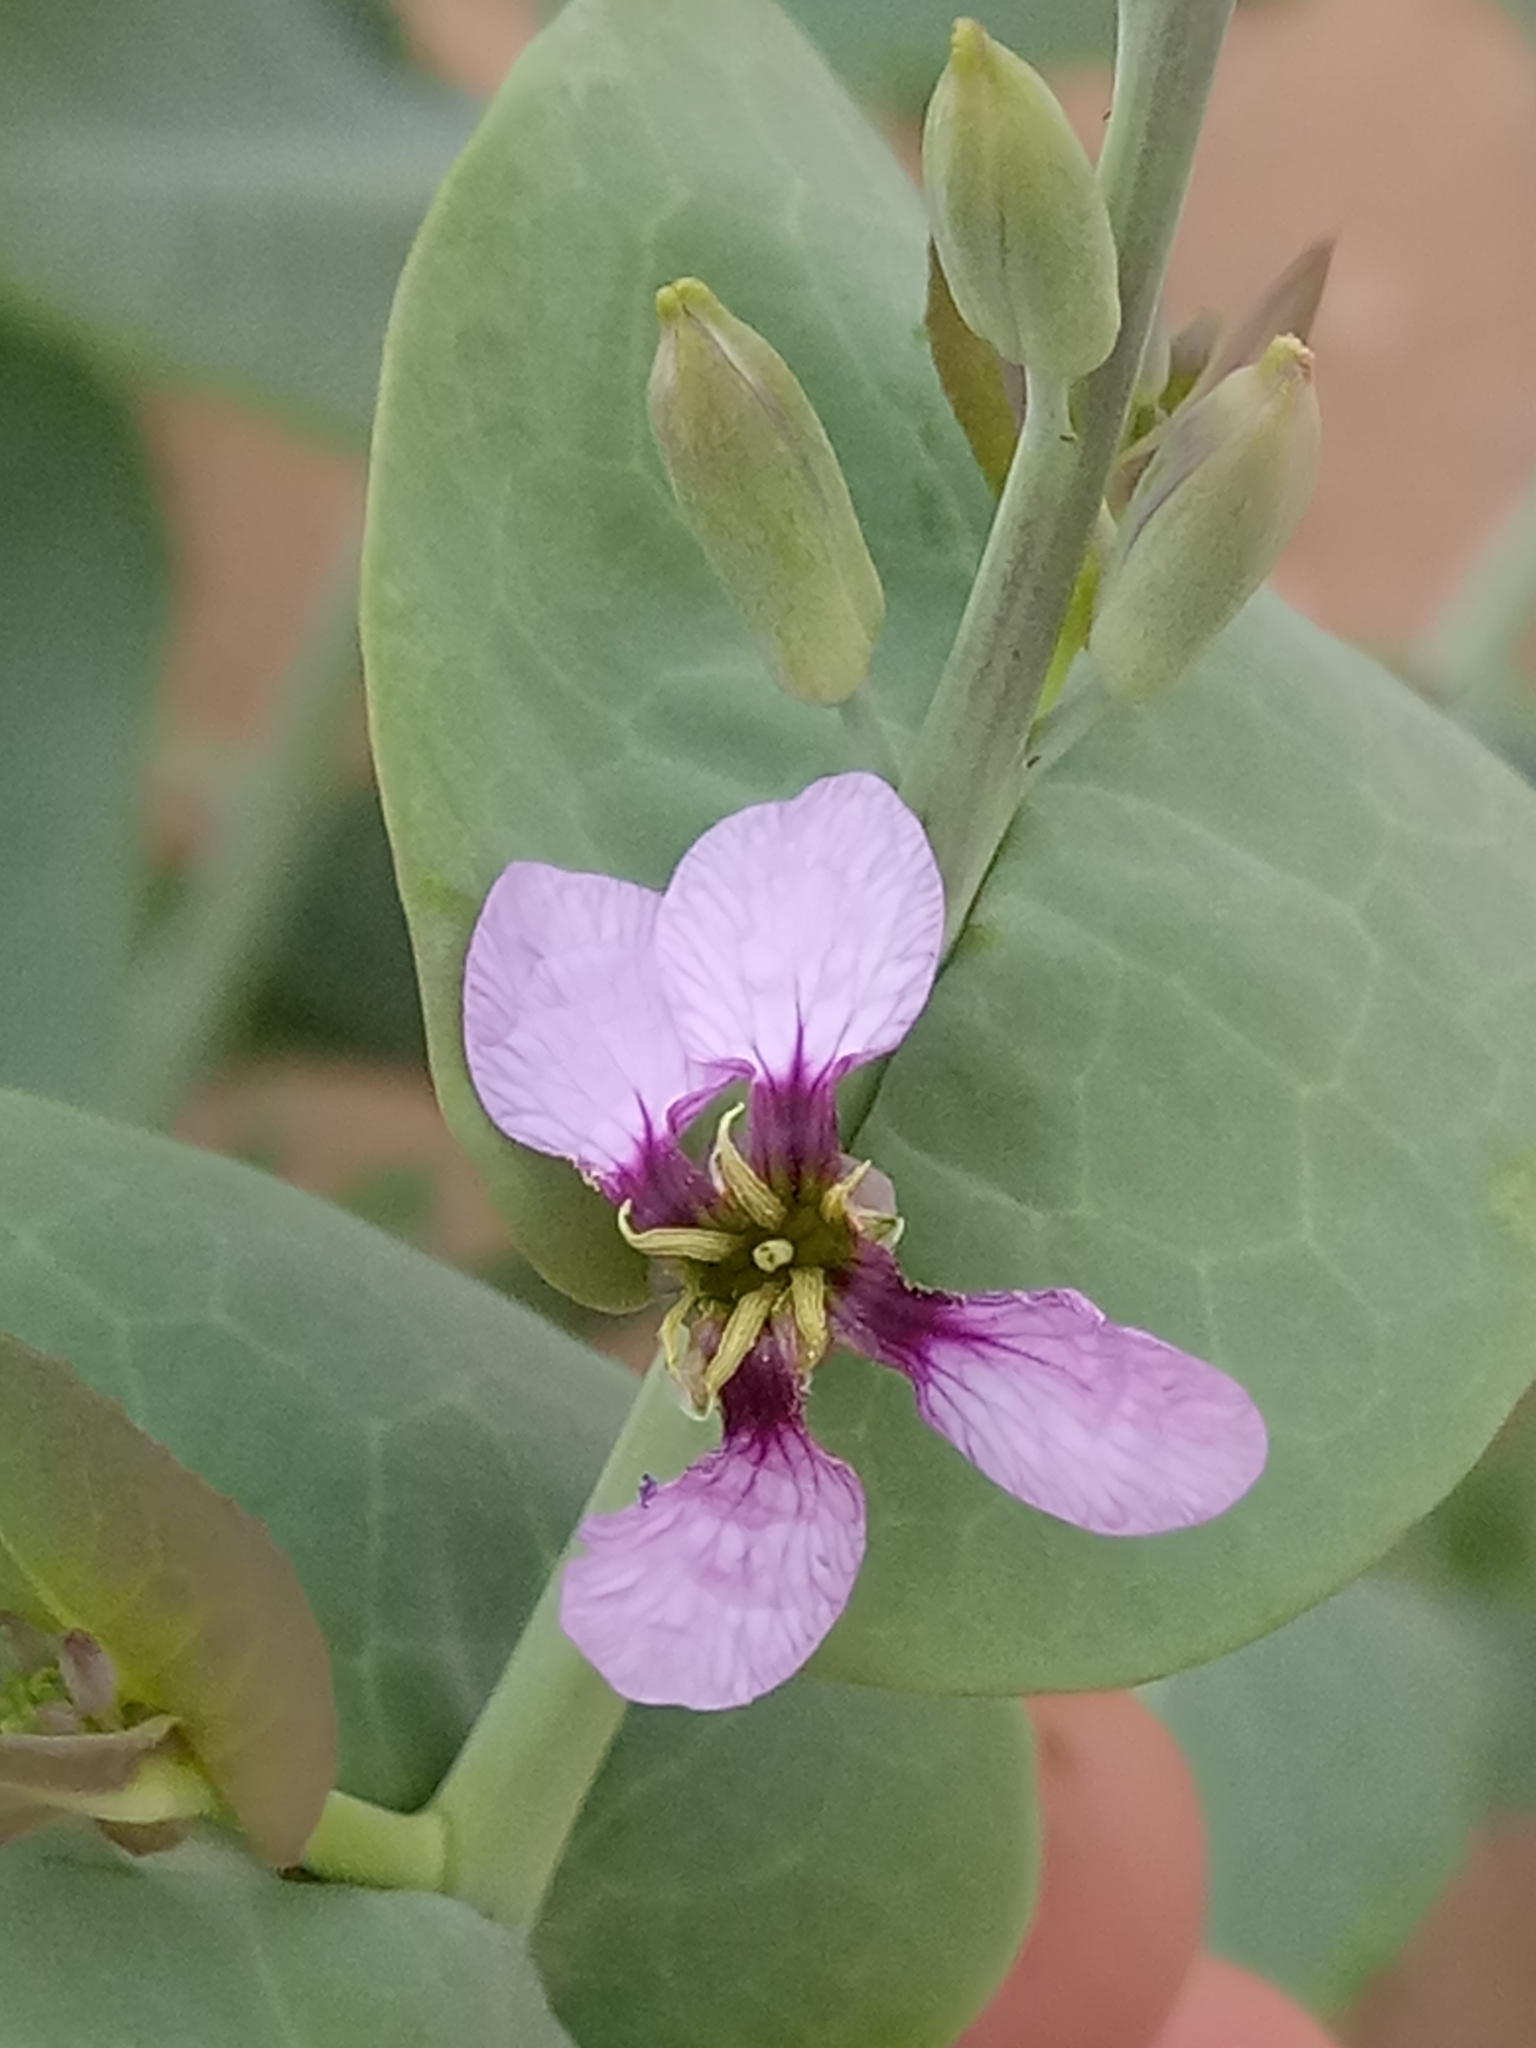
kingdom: Plantae
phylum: Tracheophyta
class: Magnoliopsida
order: Brassicales
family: Brassicaceae
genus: Schouwia
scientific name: Schouwia purpurea
